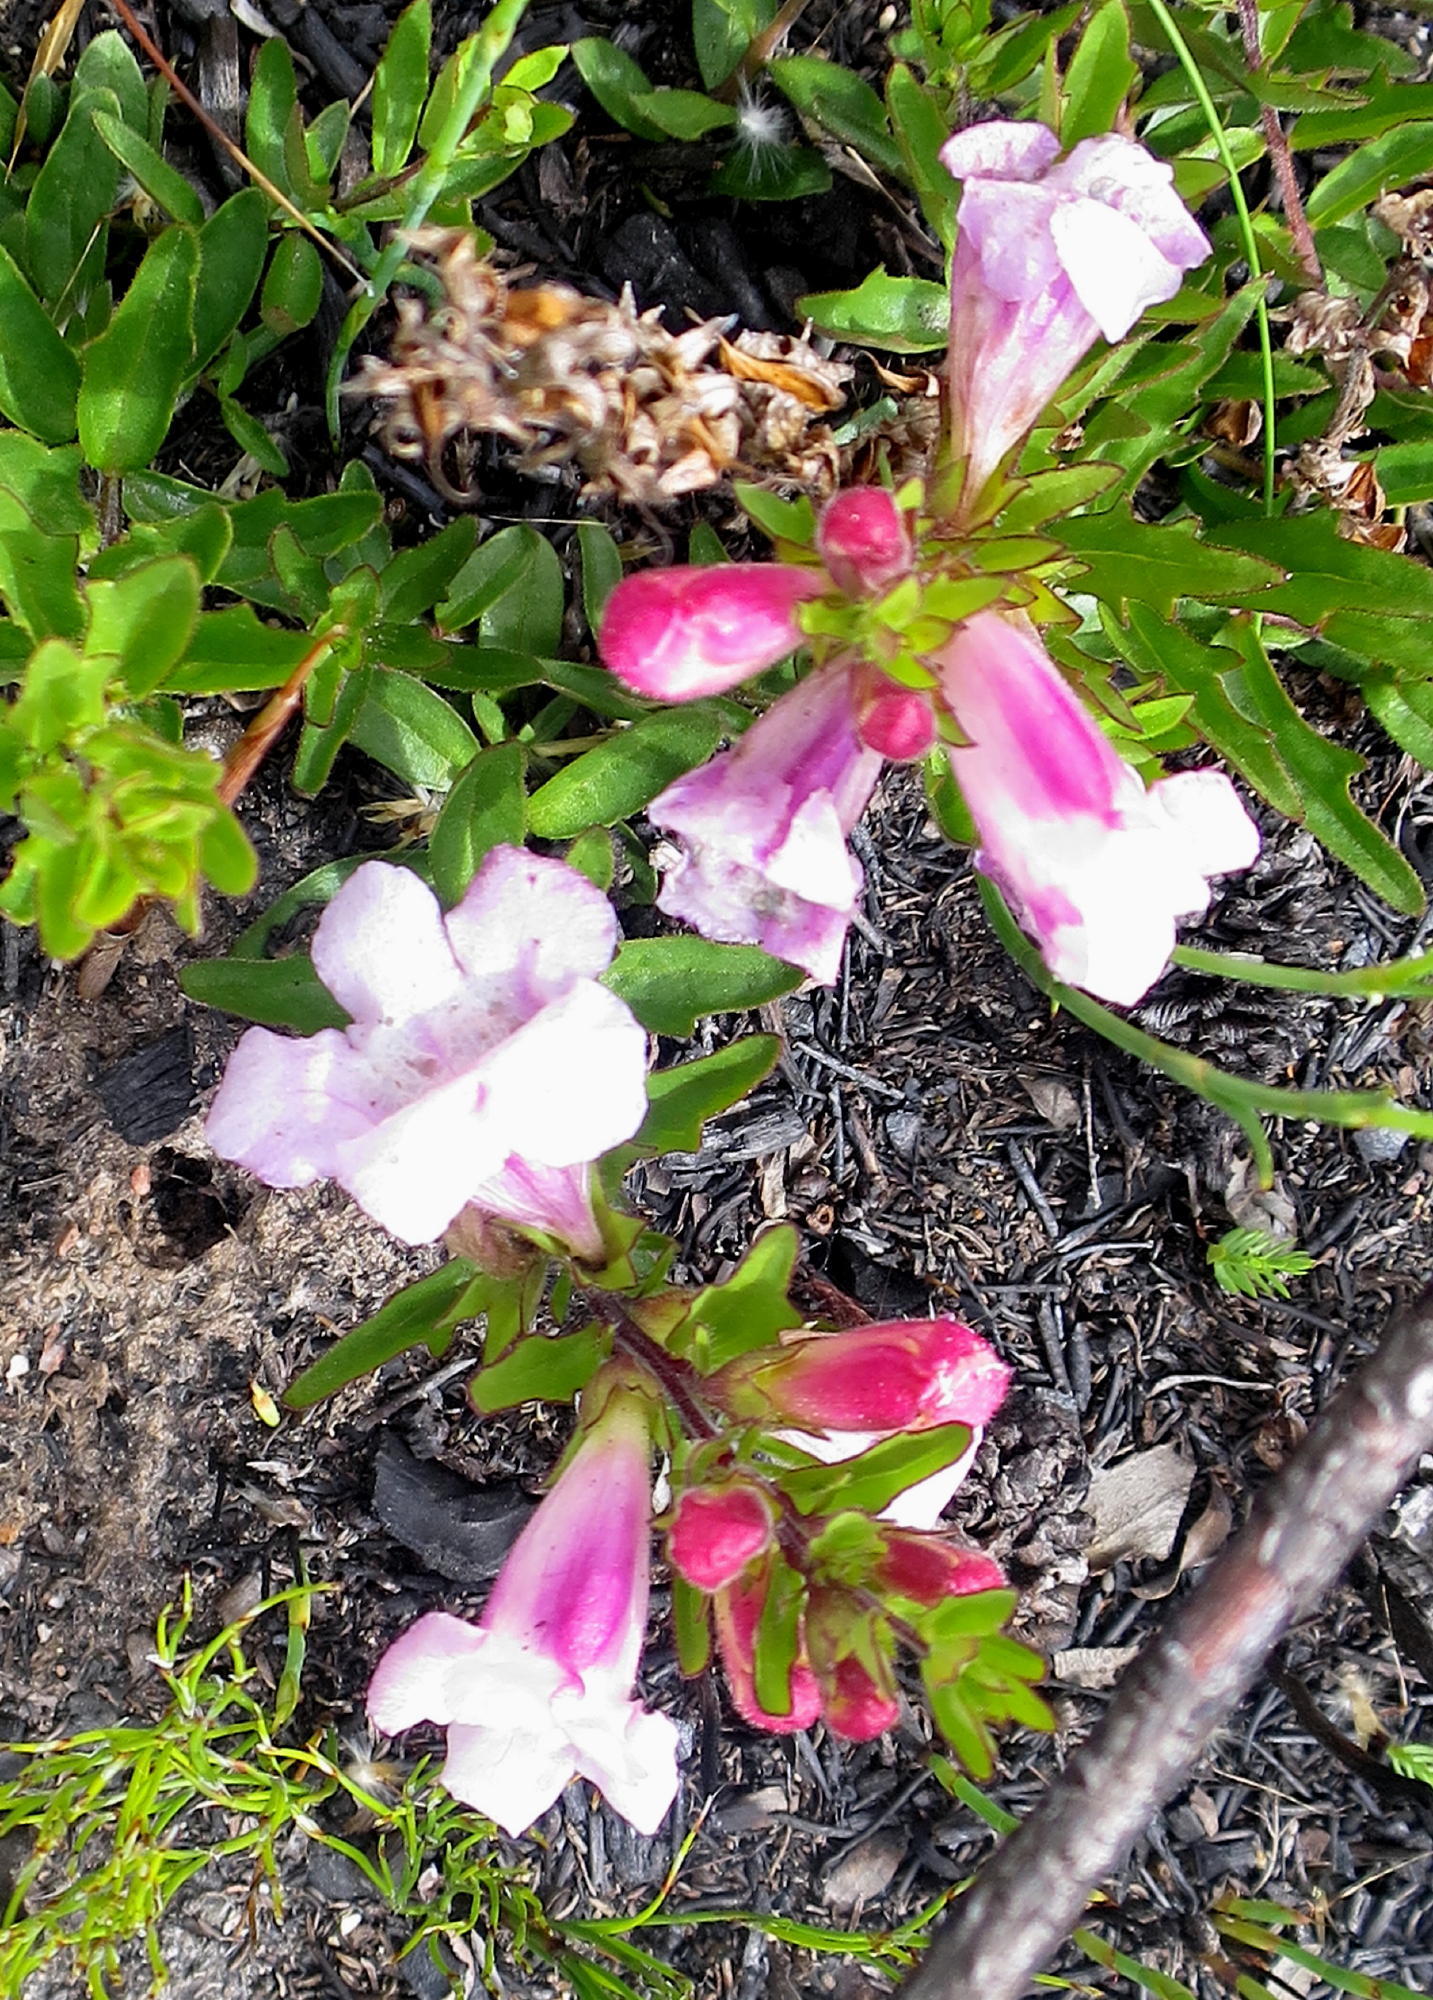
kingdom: Plantae
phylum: Tracheophyta
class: Magnoliopsida
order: Lamiales
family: Orobanchaceae
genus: Graderia
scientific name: Graderia scabra
